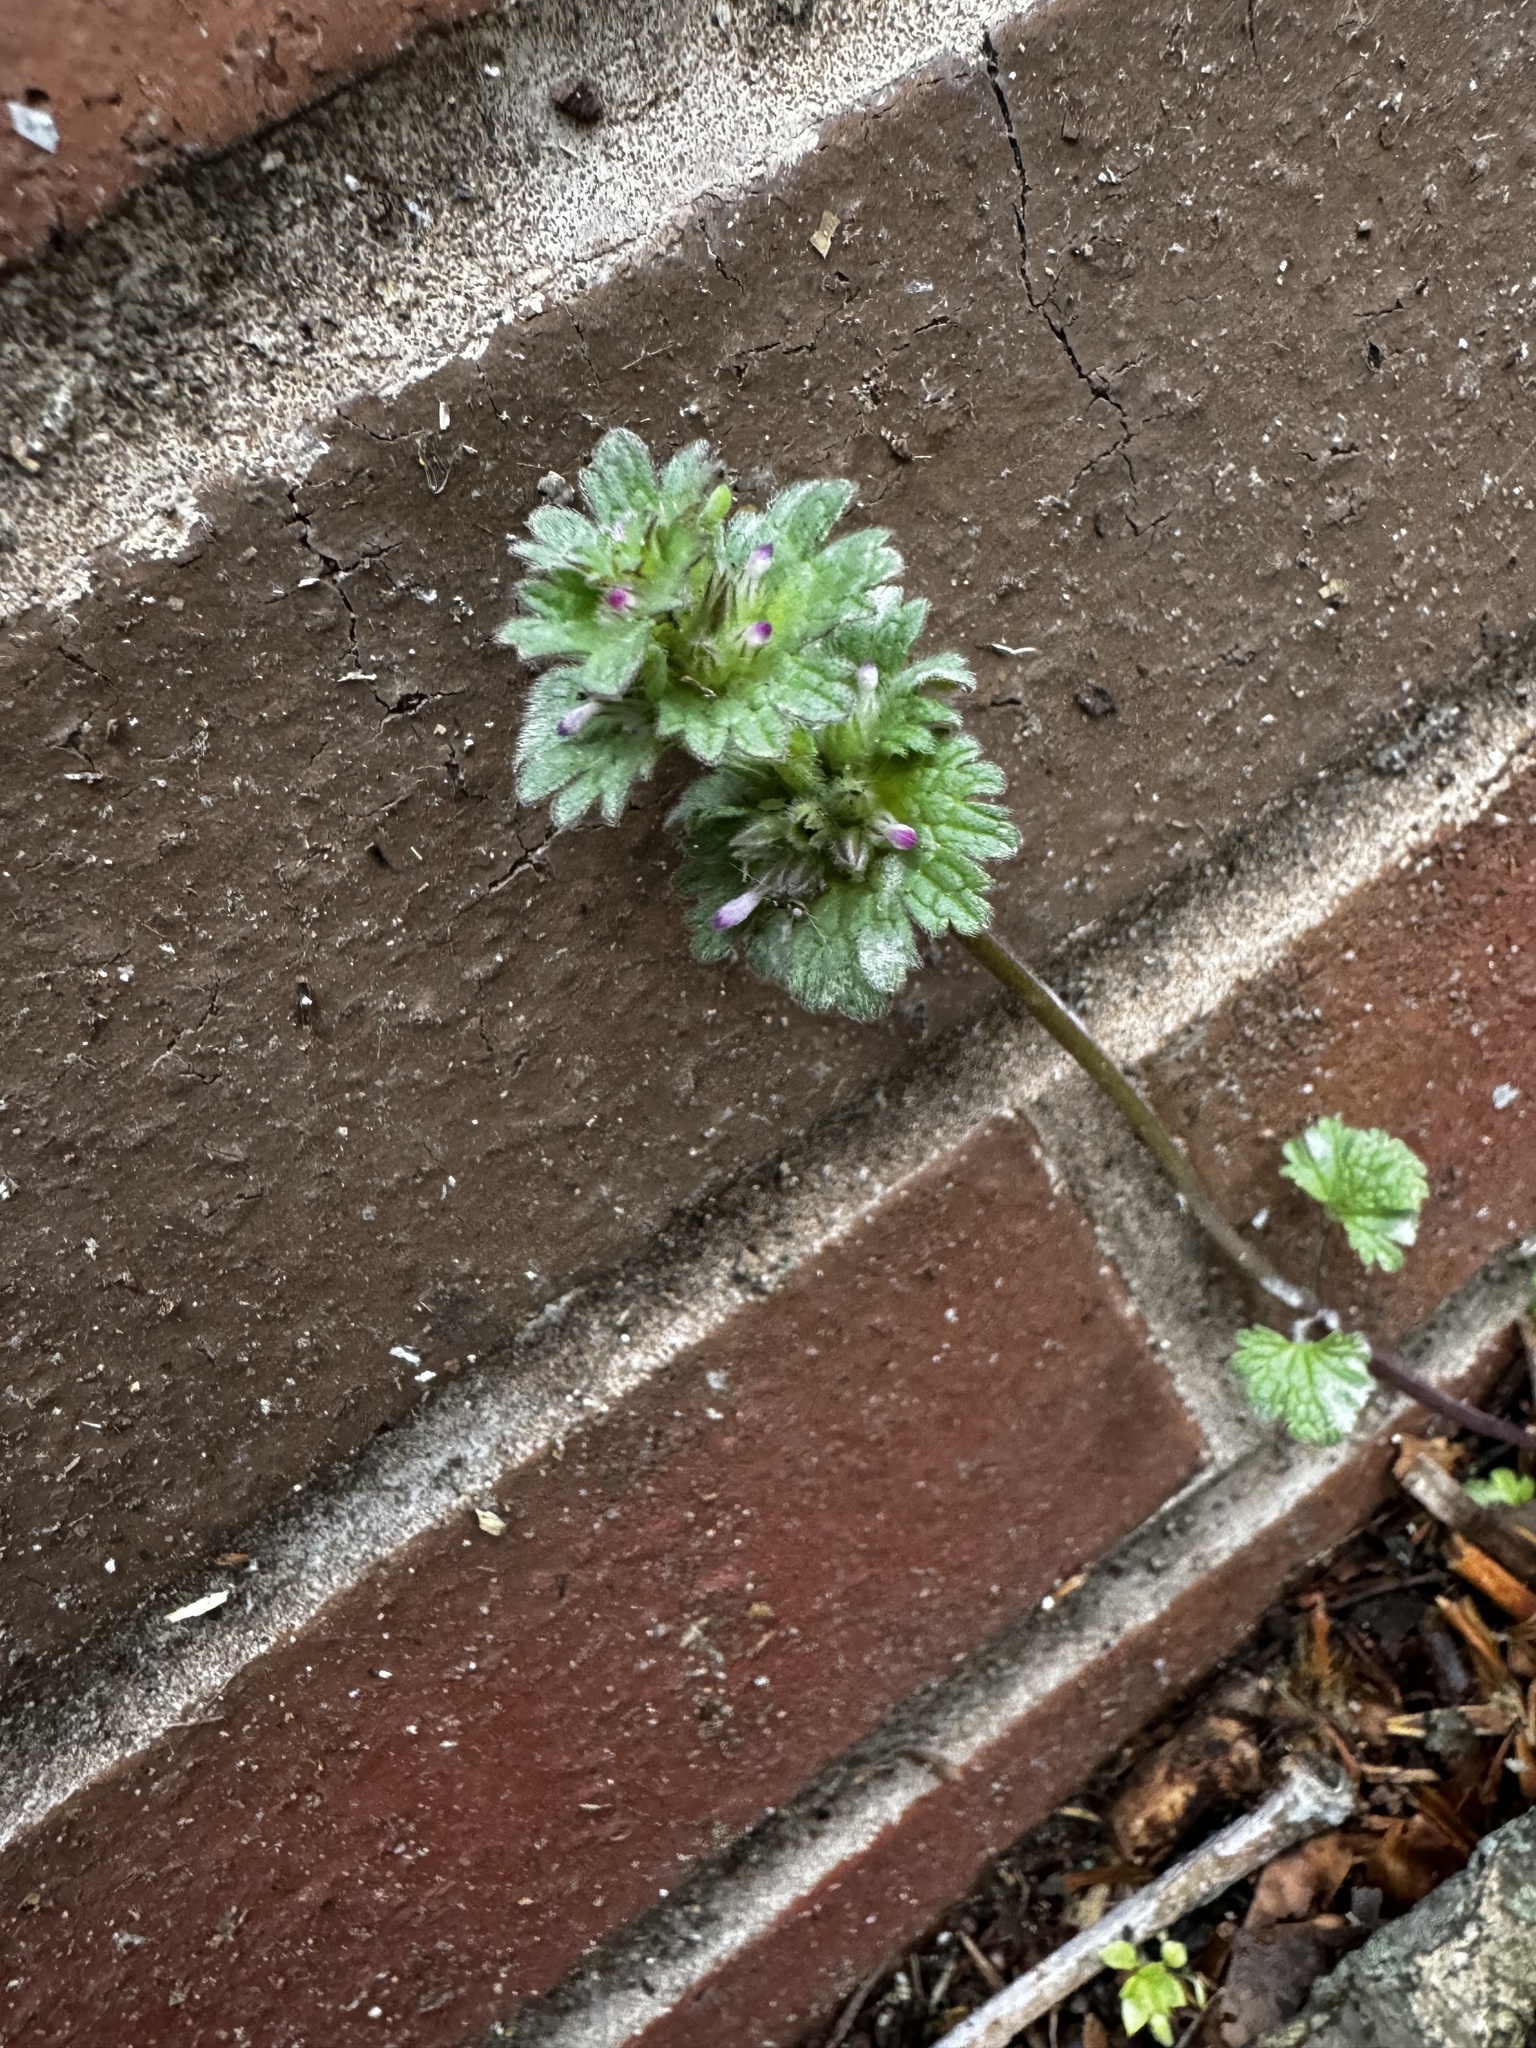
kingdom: Plantae
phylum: Tracheophyta
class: Magnoliopsida
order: Lamiales
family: Lamiaceae
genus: Lamium
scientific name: Lamium amplexicaule
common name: Henbit dead-nettle
